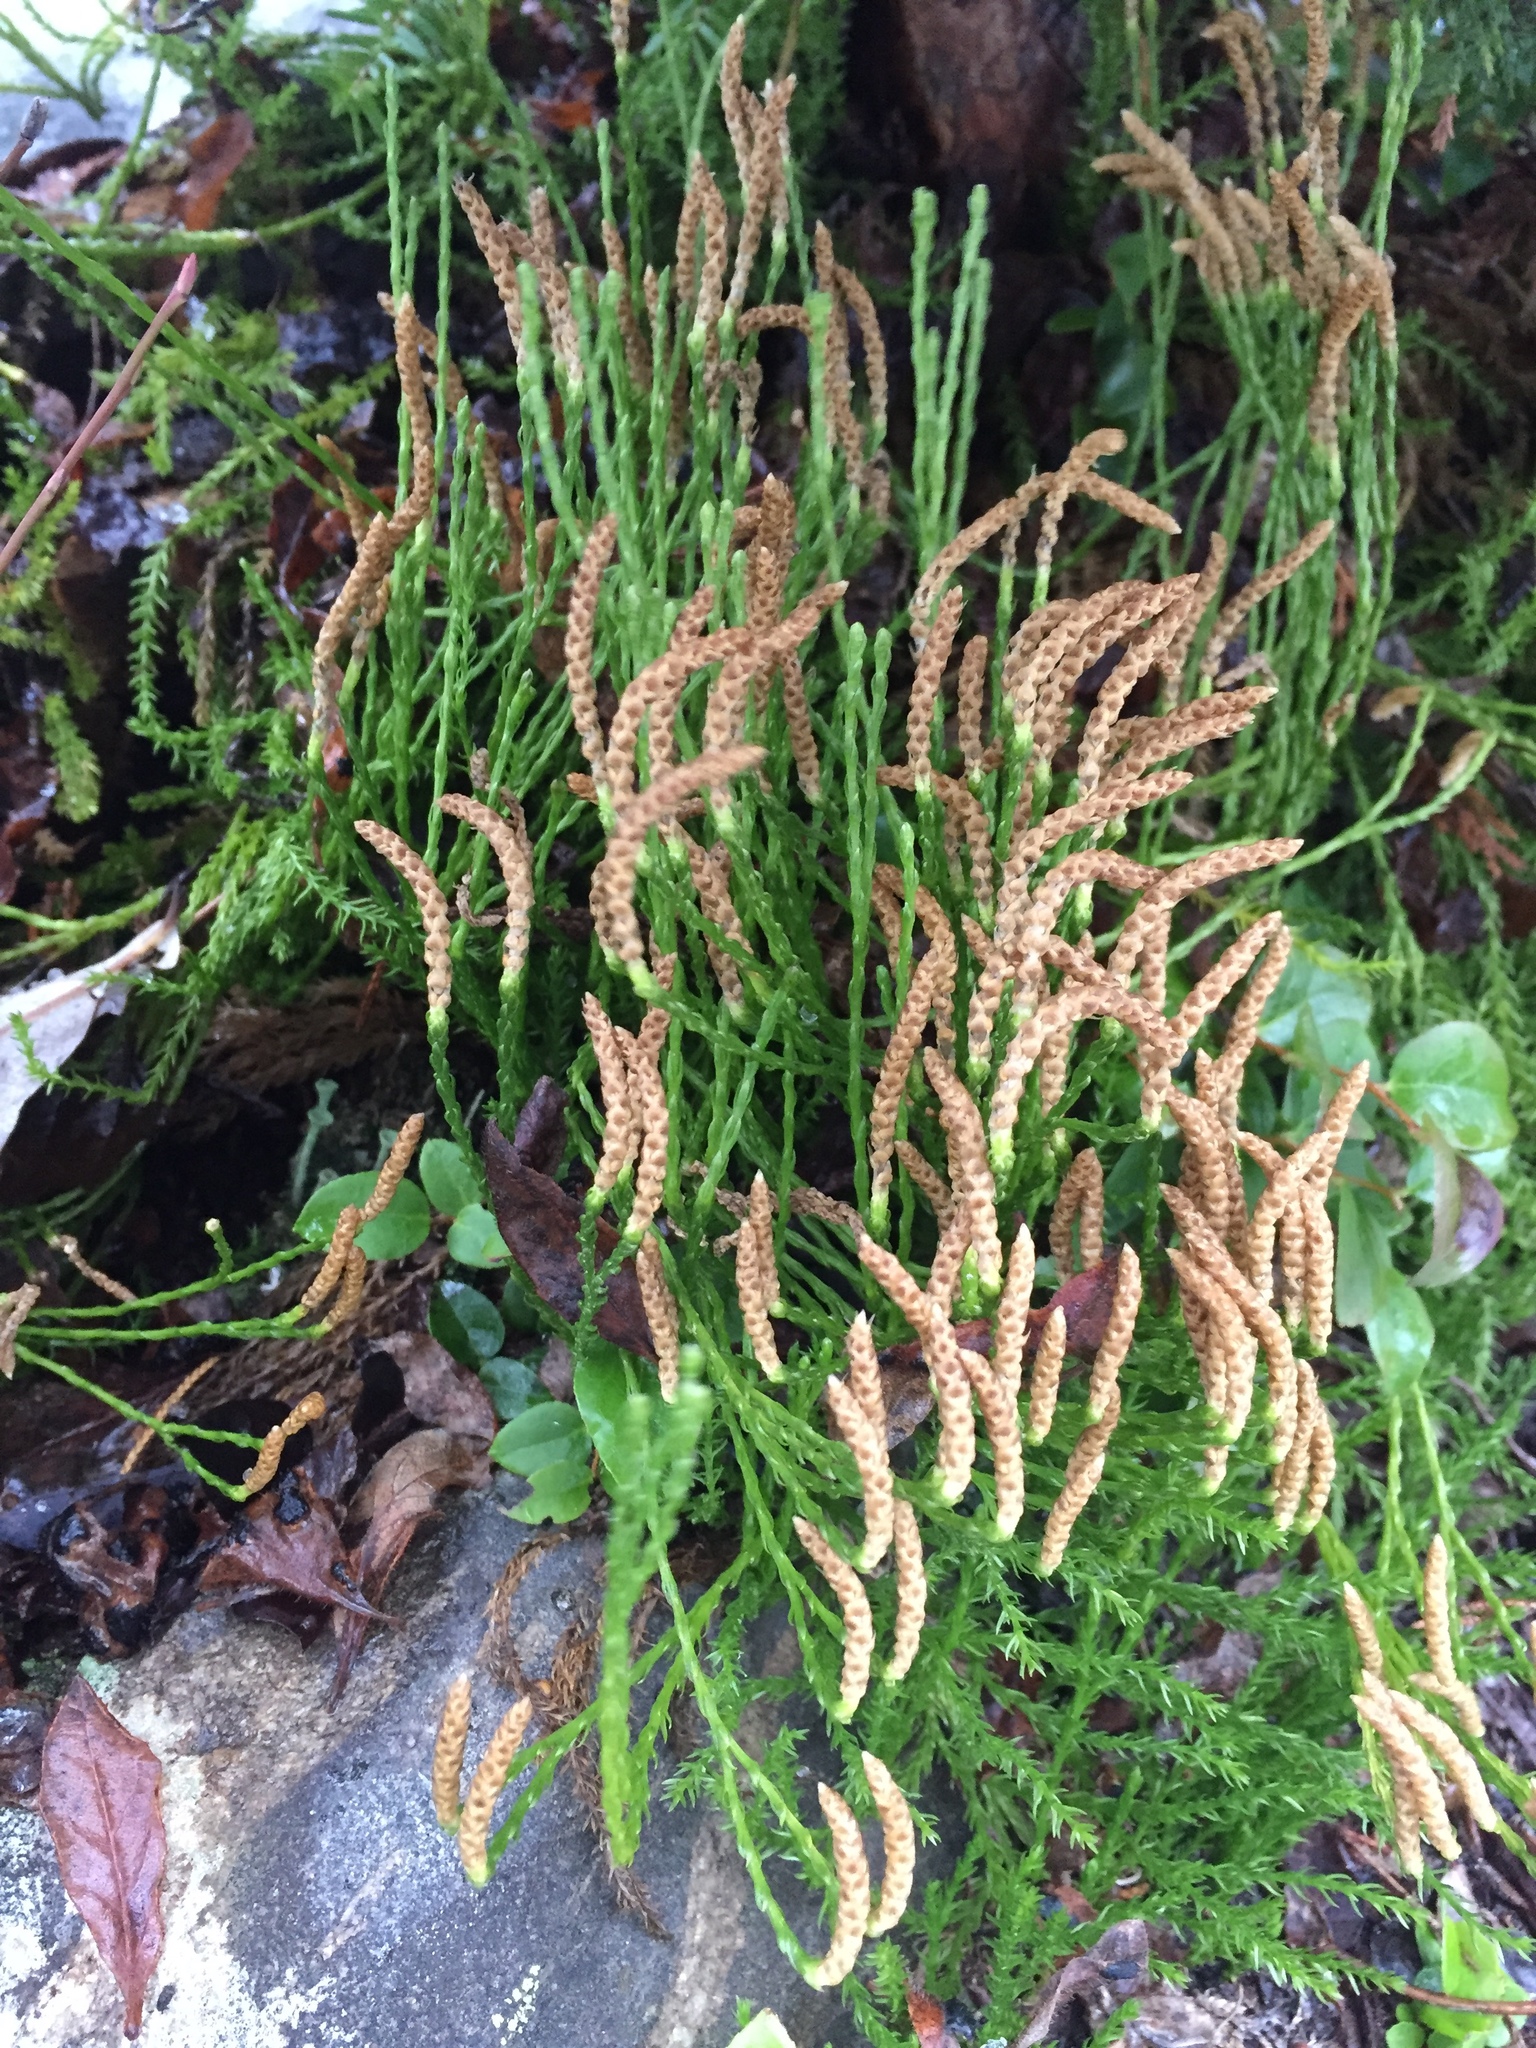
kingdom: Plantae
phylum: Tracheophyta
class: Lycopodiopsida
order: Lycopodiales
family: Lycopodiaceae
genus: Diphasiastrum
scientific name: Diphasiastrum sitchense
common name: Alaska clubmoss
